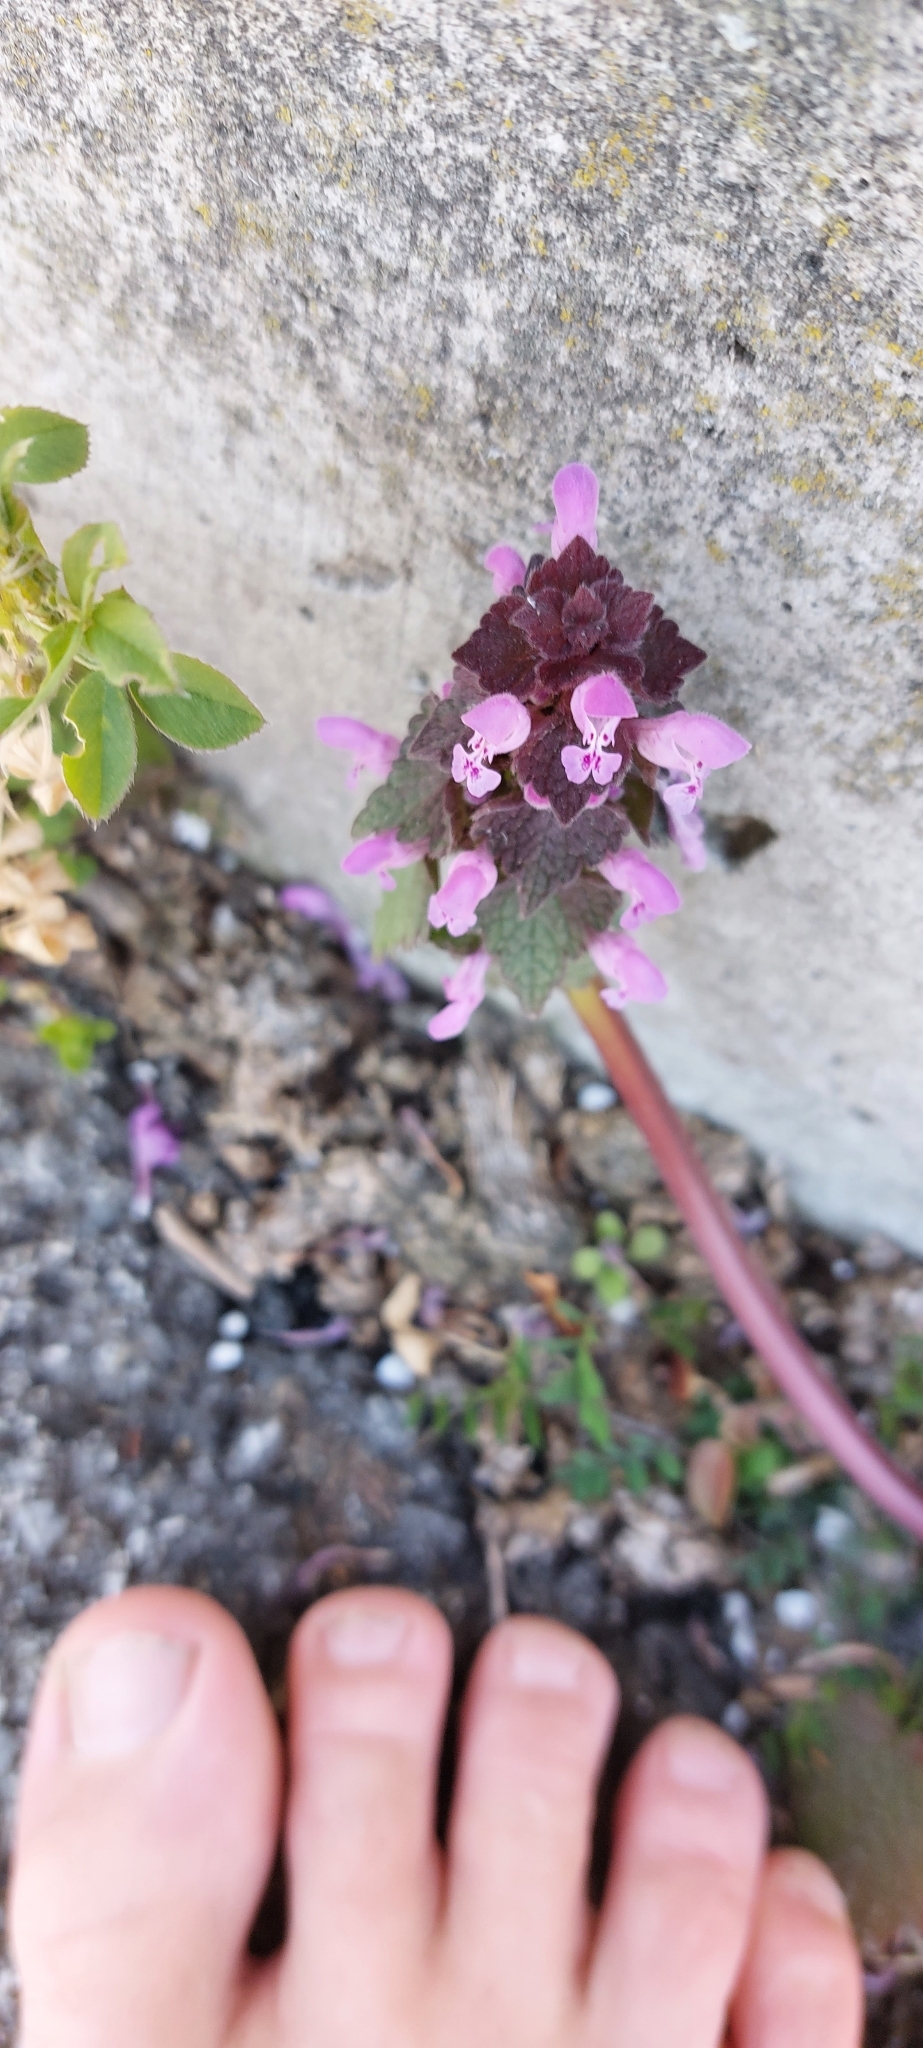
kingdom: Plantae
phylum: Tracheophyta
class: Magnoliopsida
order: Lamiales
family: Lamiaceae
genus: Lamium
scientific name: Lamium purpureum
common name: Red dead-nettle
